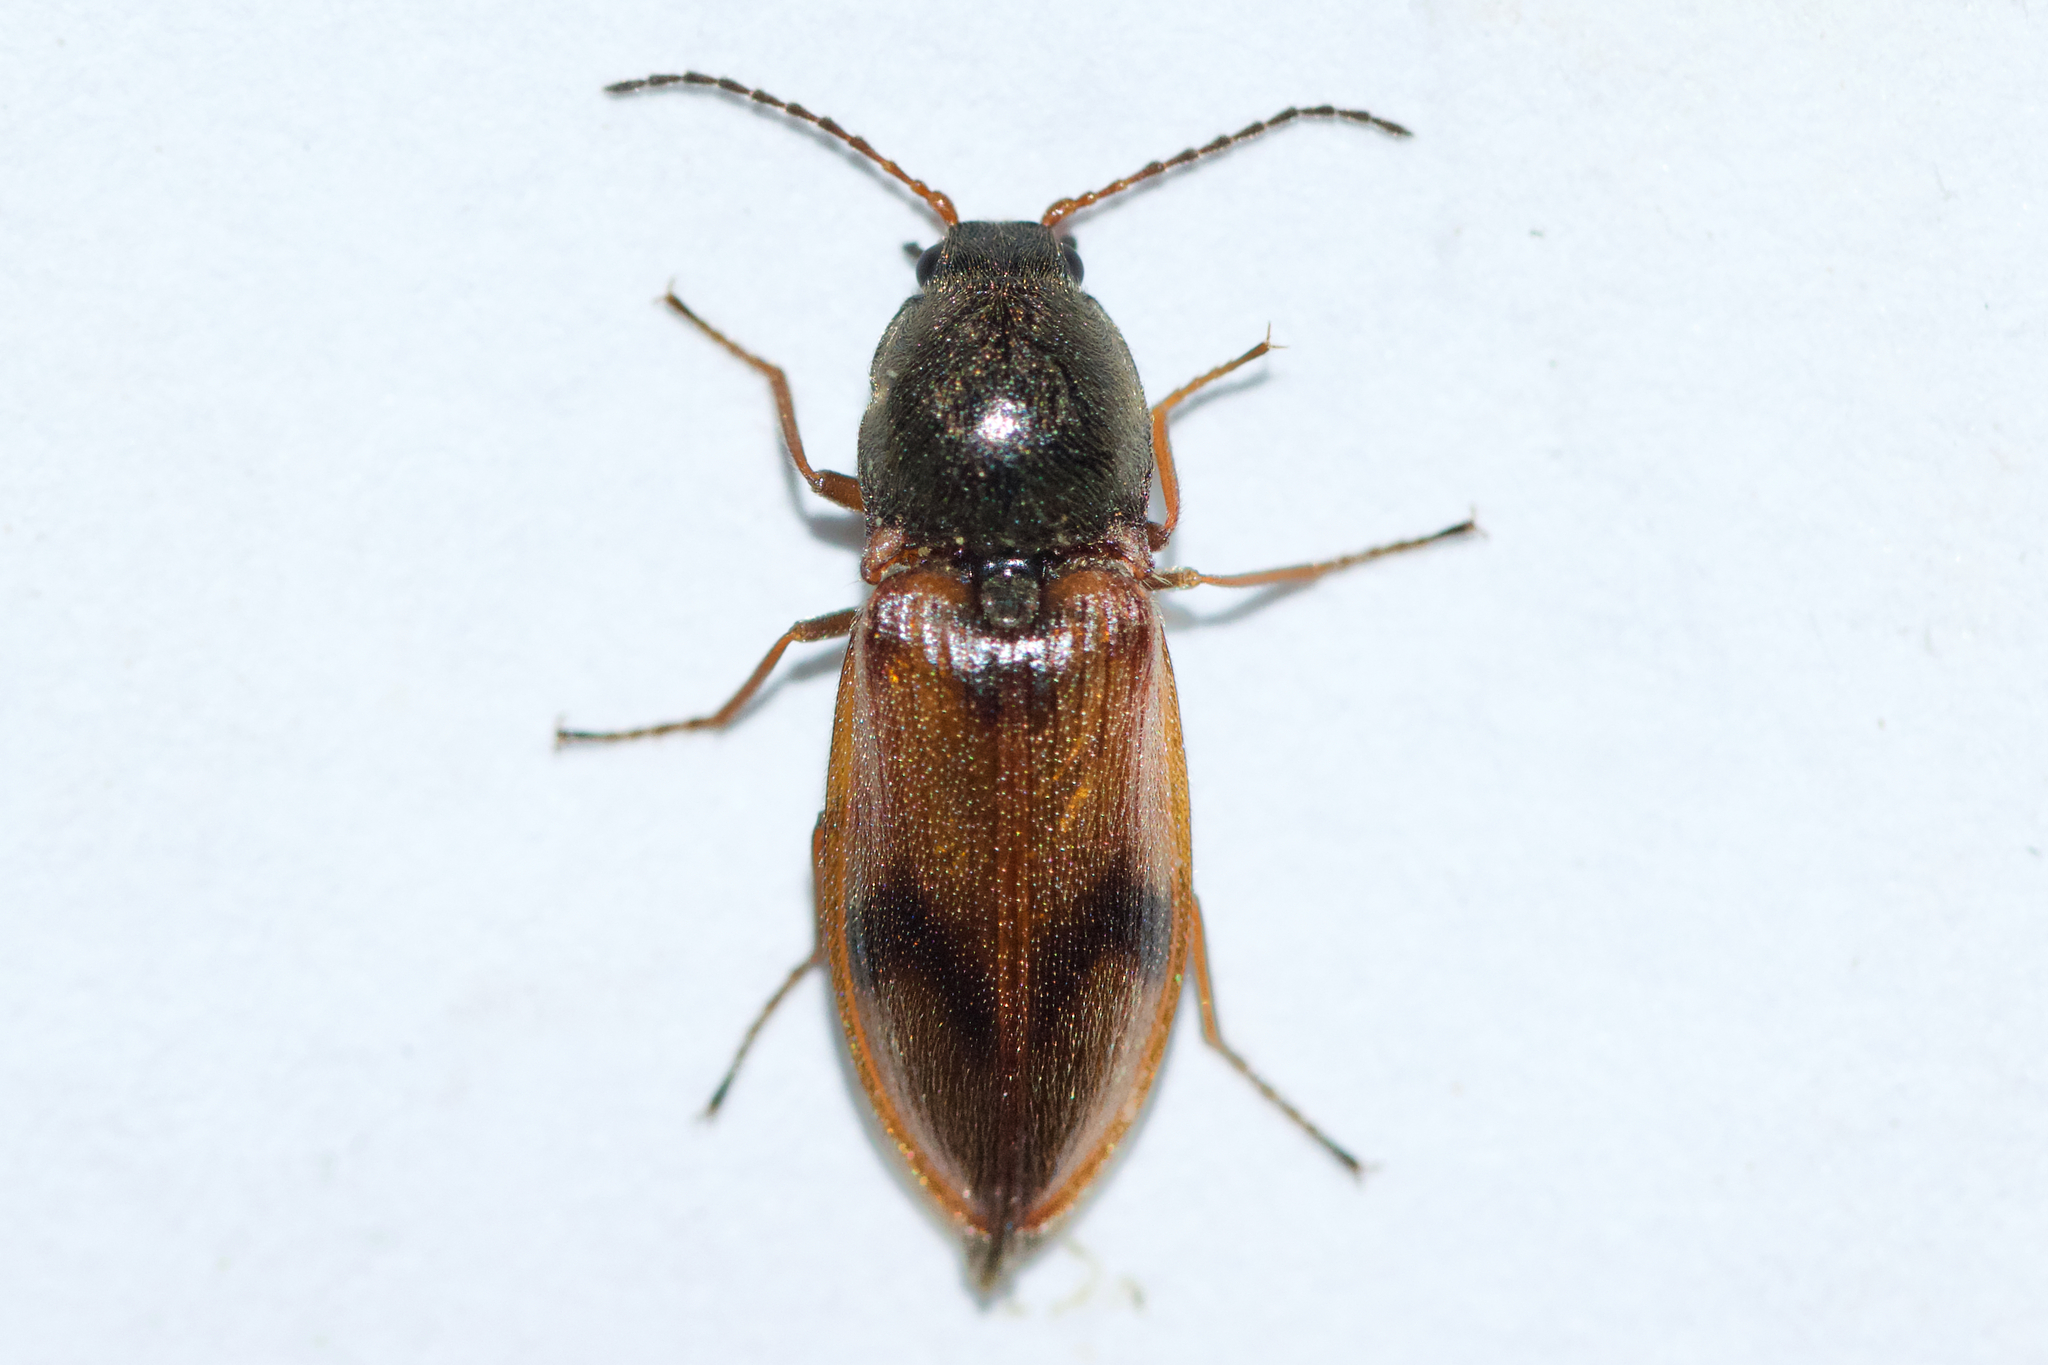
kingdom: Animalia
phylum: Arthropoda
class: Insecta
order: Coleoptera
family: Elateridae
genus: Stropenron
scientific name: Stropenron propola
